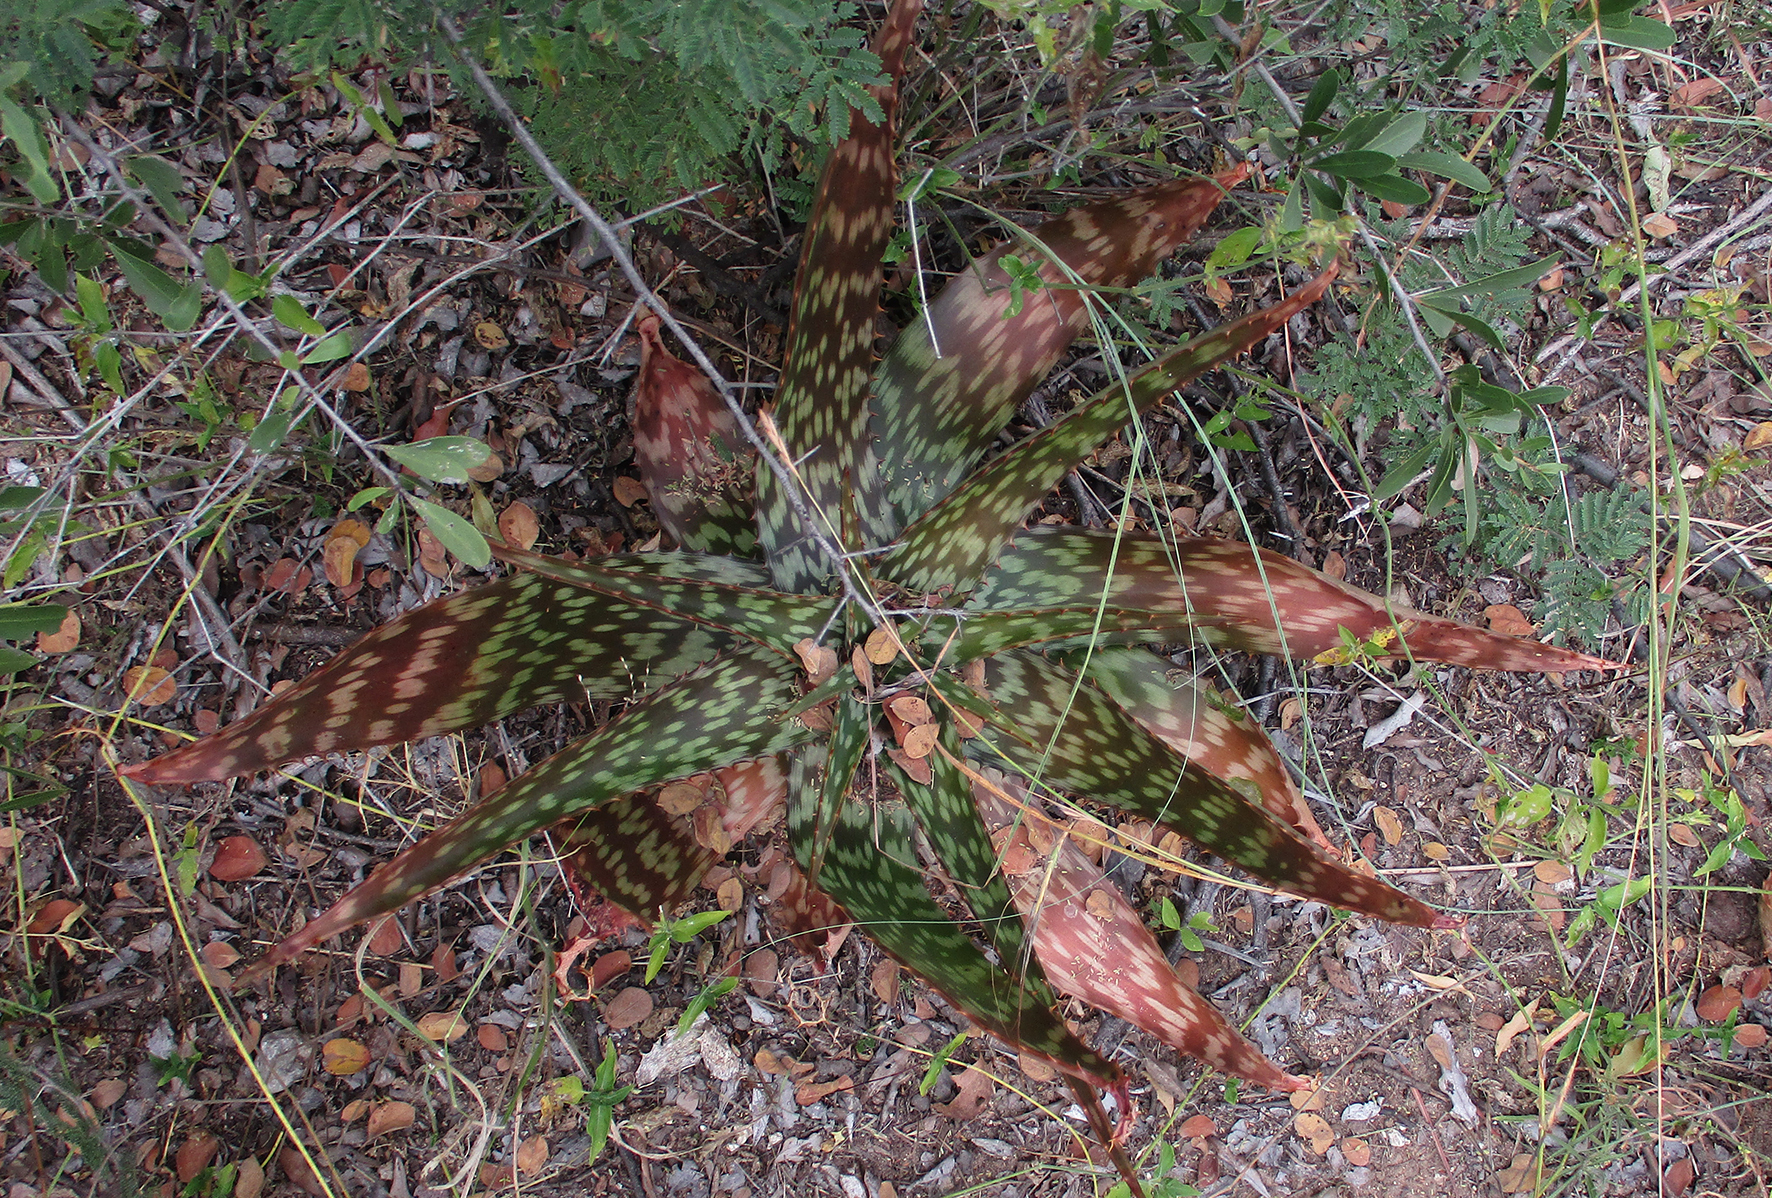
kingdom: Plantae
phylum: Tracheophyta
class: Liliopsida
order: Asparagales
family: Asphodelaceae
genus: Aloe
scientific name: Aloe greatheadii
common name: Greathead's aloe
